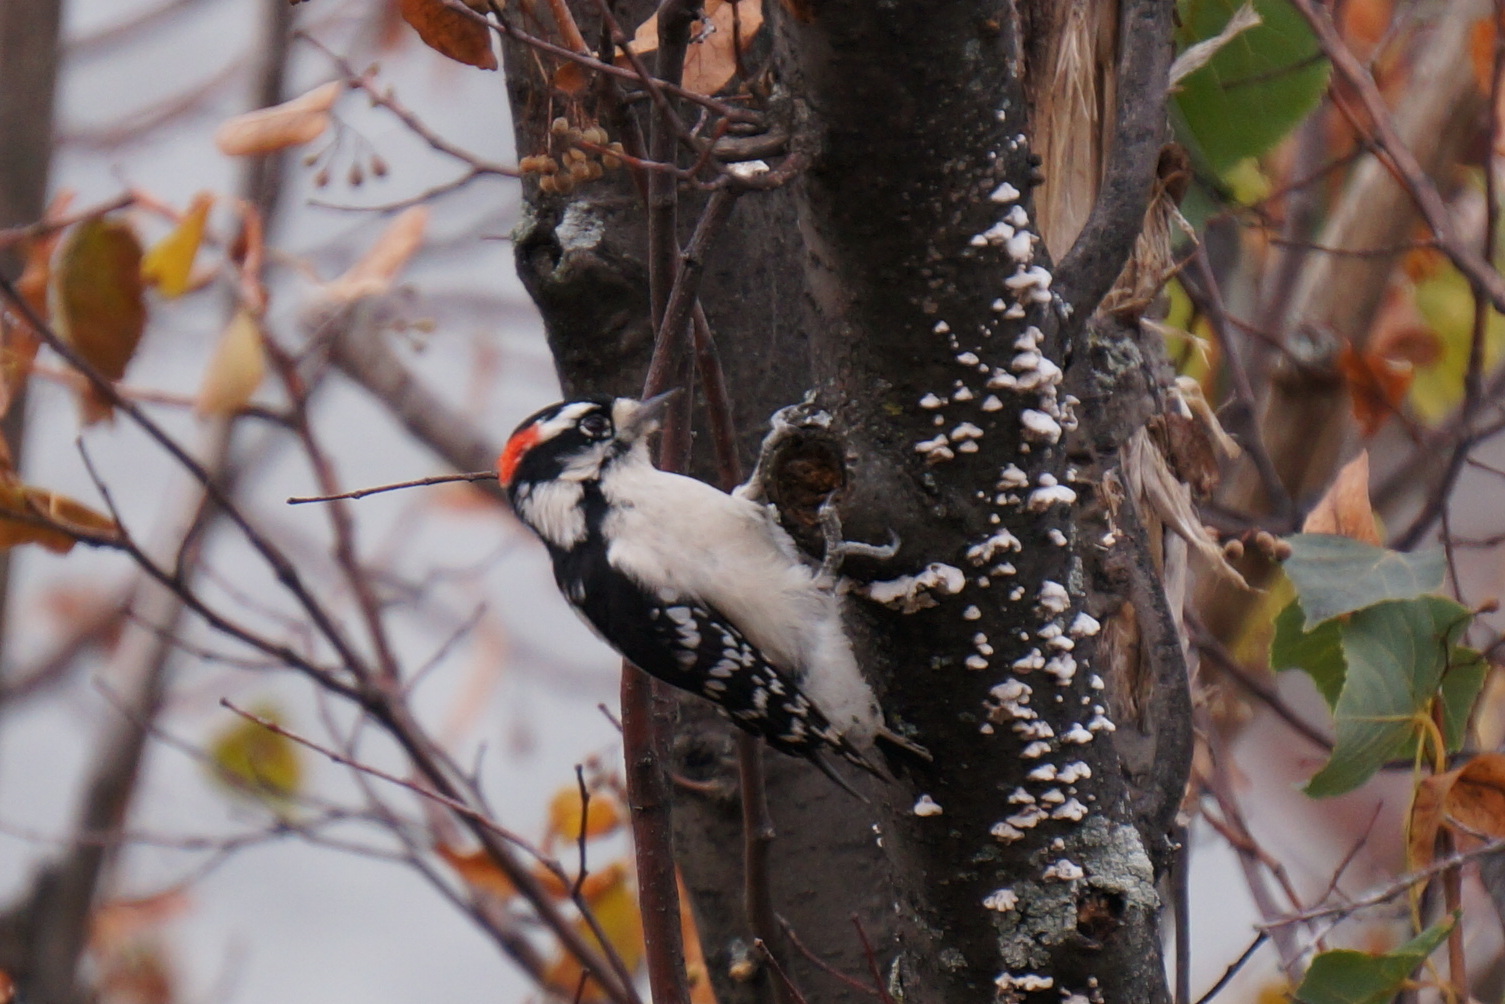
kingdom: Animalia
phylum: Chordata
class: Aves
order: Piciformes
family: Picidae
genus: Dryobates
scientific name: Dryobates pubescens
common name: Downy woodpecker
